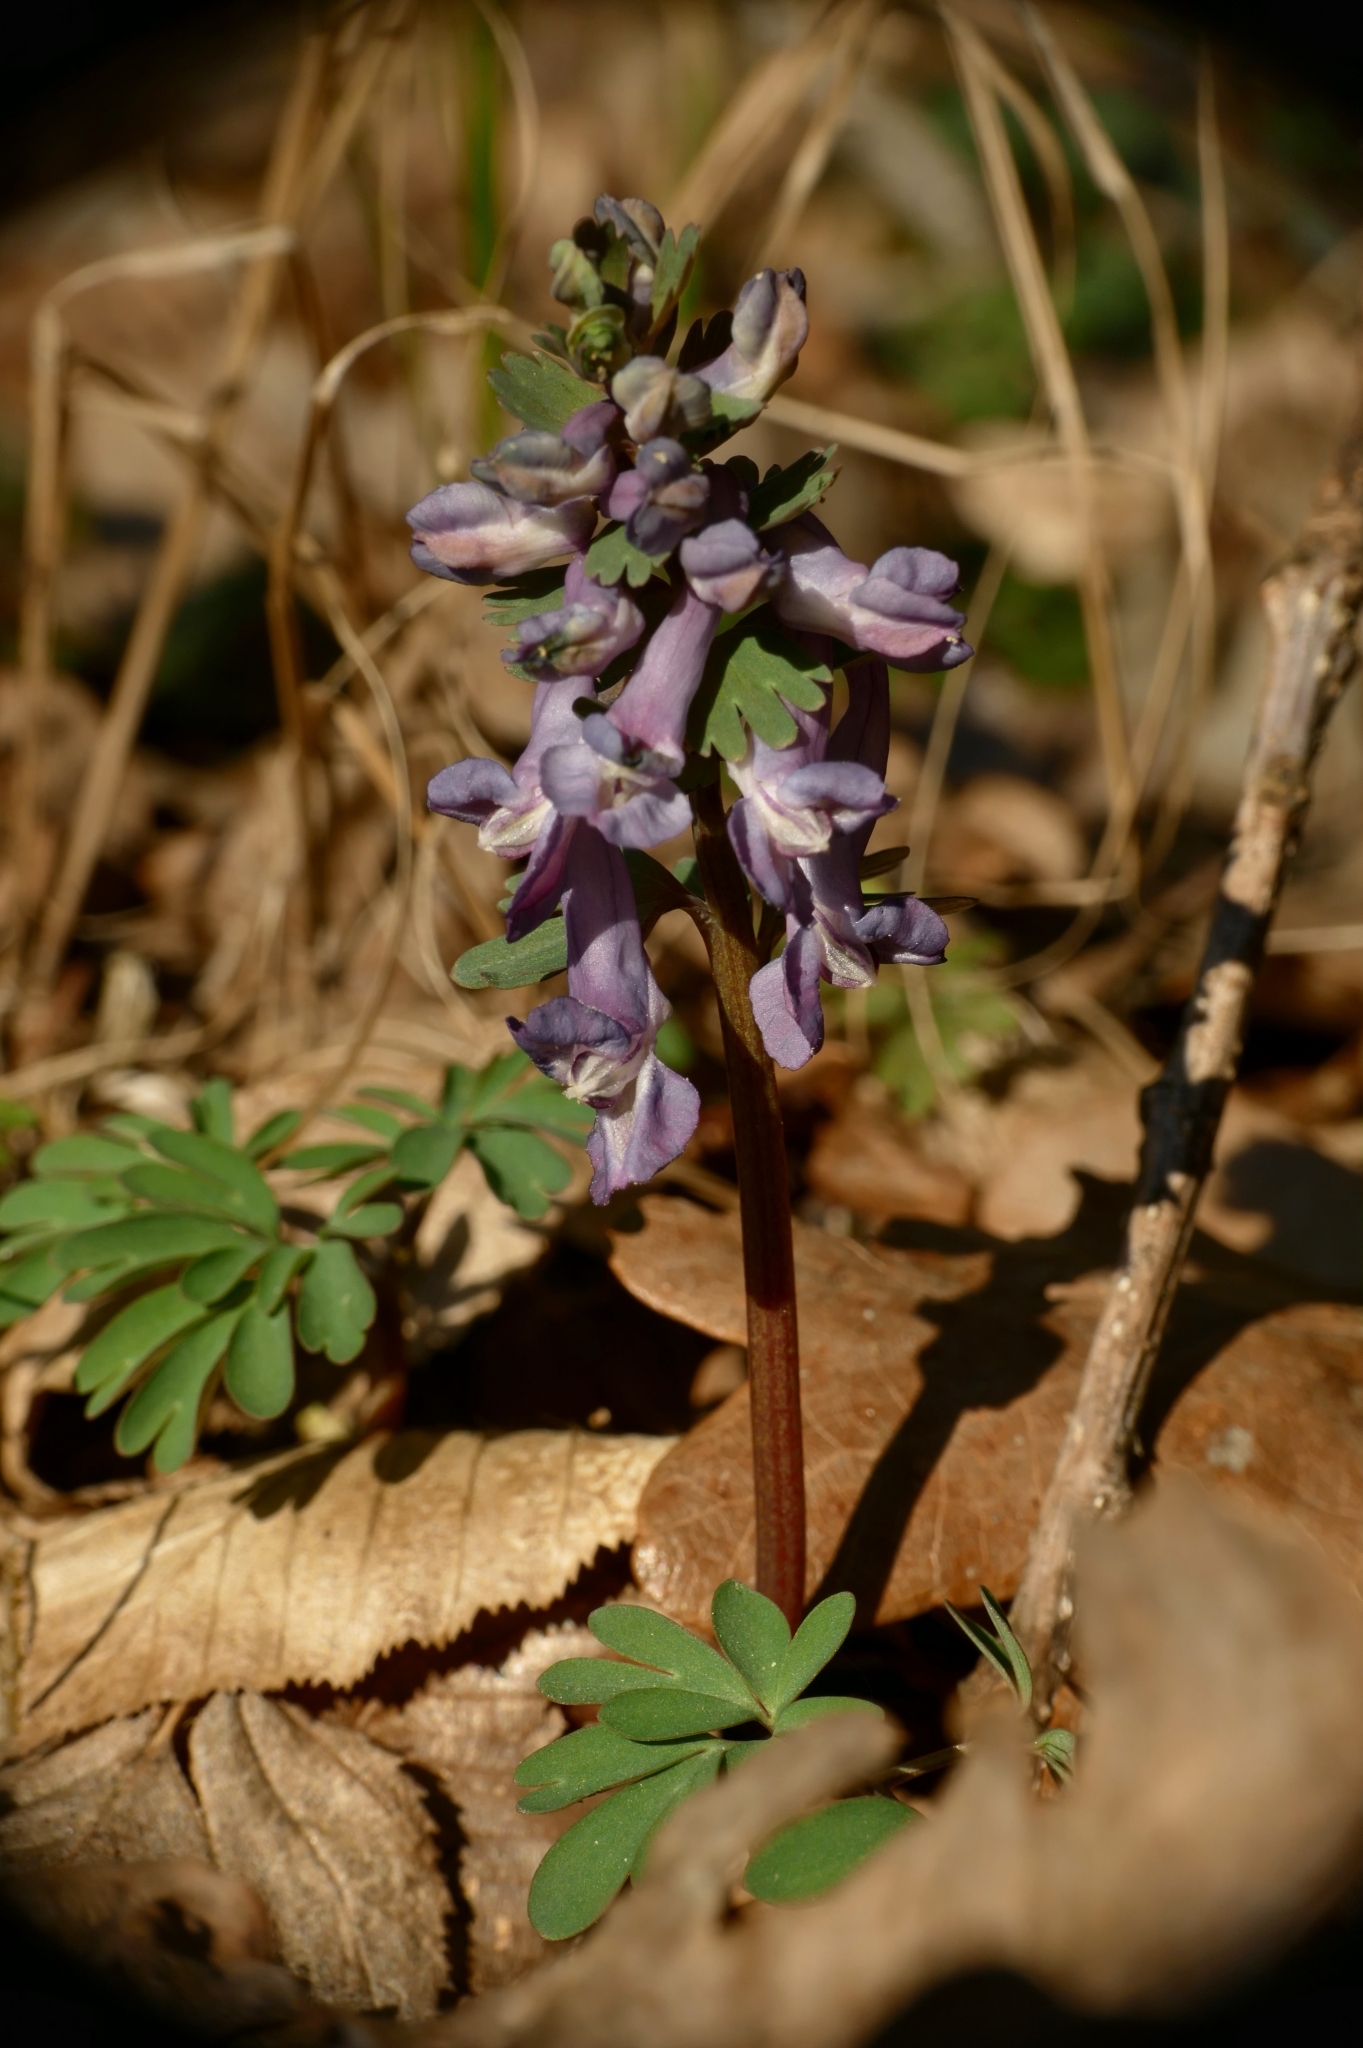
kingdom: Plantae
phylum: Tracheophyta
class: Magnoliopsida
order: Ranunculales
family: Papaveraceae
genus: Corydalis
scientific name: Corydalis solida
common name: Bird-in-a-bush
